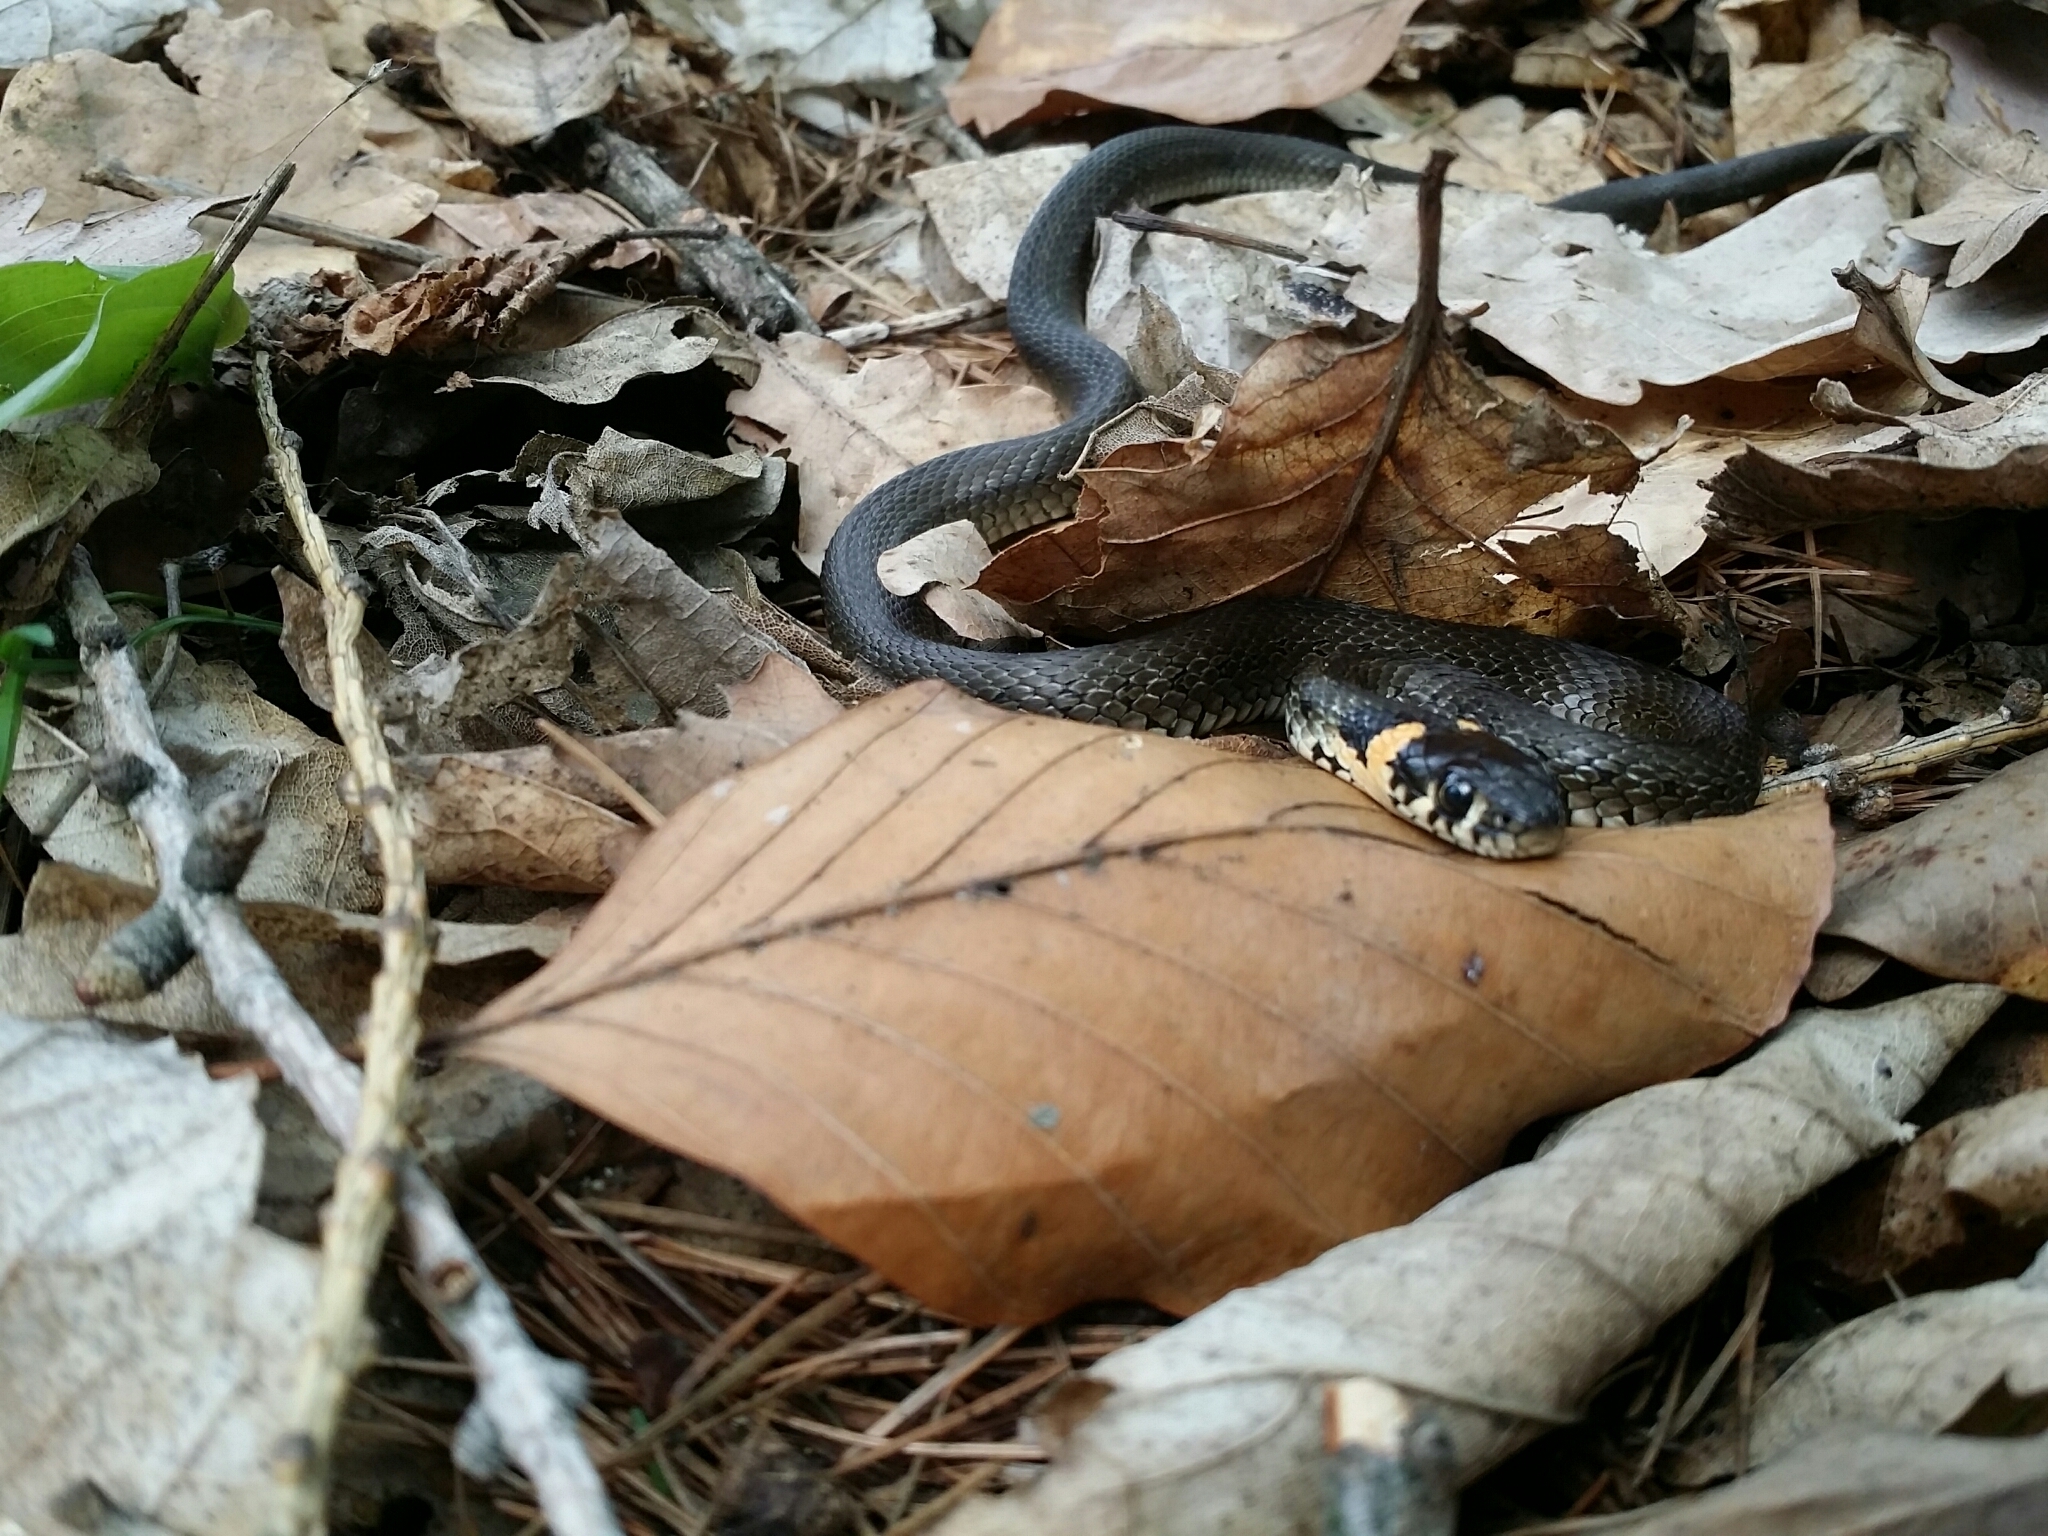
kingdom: Animalia
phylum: Chordata
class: Squamata
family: Colubridae
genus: Natrix
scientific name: Natrix natrix
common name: Grass snake
